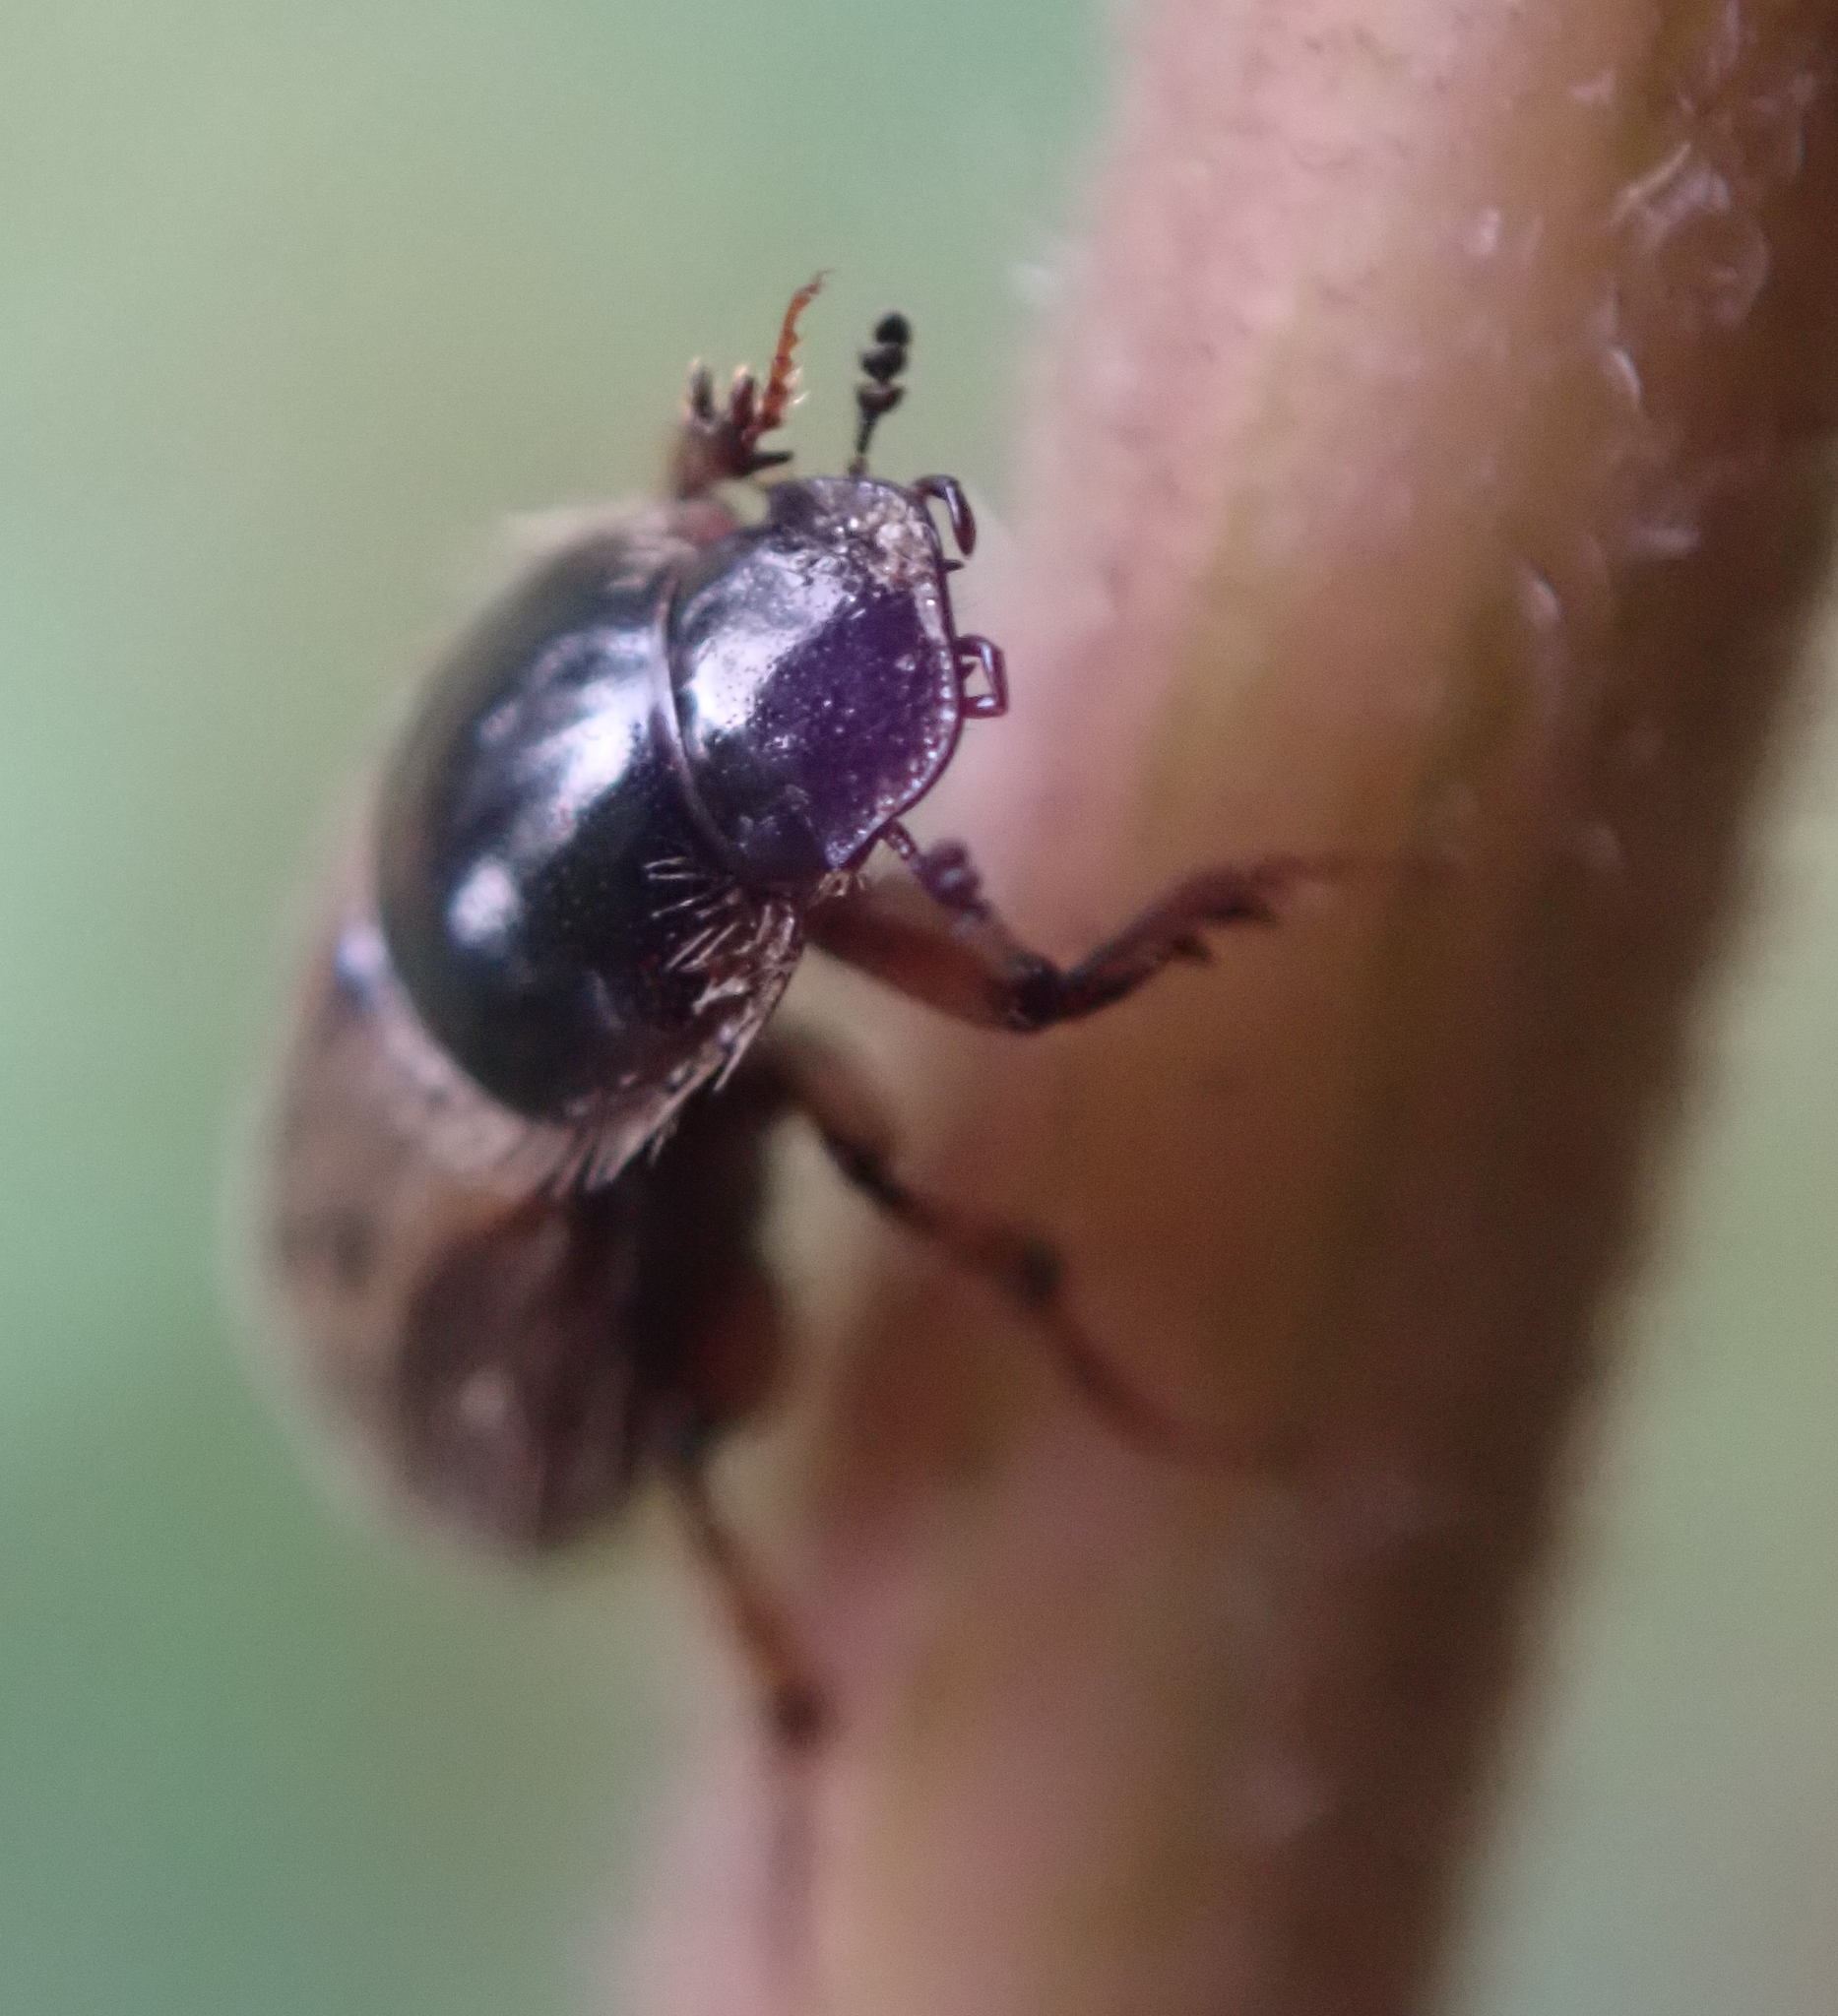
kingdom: Animalia
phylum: Arthropoda
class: Insecta
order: Coleoptera
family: Scarabaeidae
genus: Nimbus
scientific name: Nimbus contaminatus
